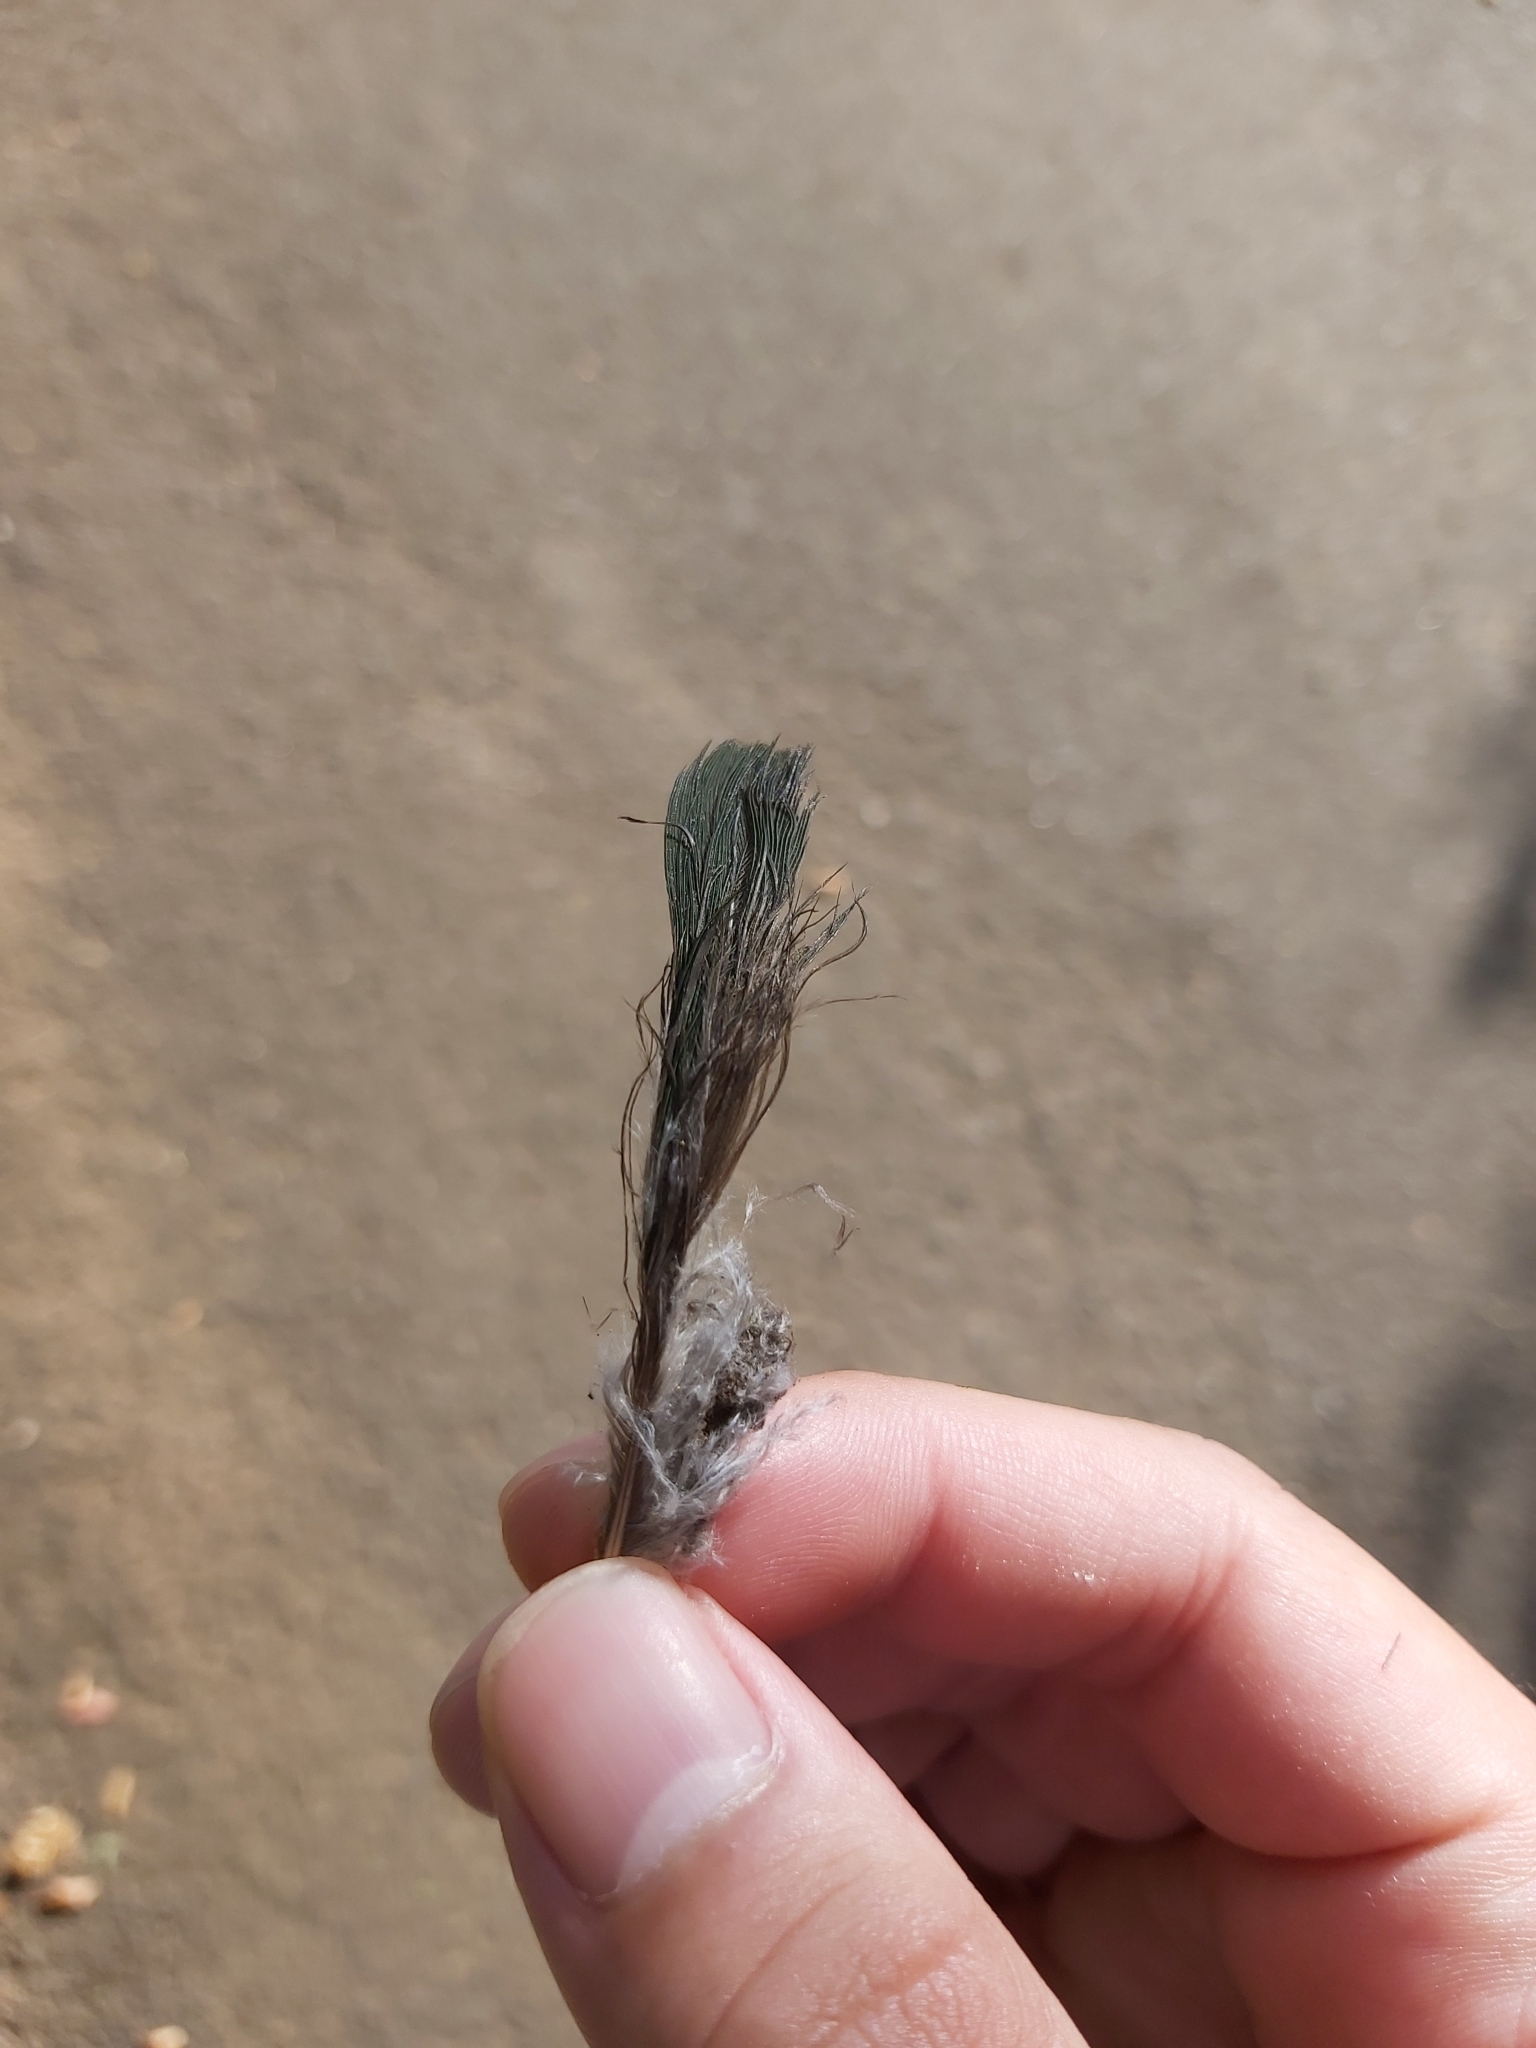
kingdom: Animalia
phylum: Chordata
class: Aves
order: Psittaciformes
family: Psittacidae
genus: Alisterus
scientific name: Alisterus scapularis
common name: Australian king parrot
